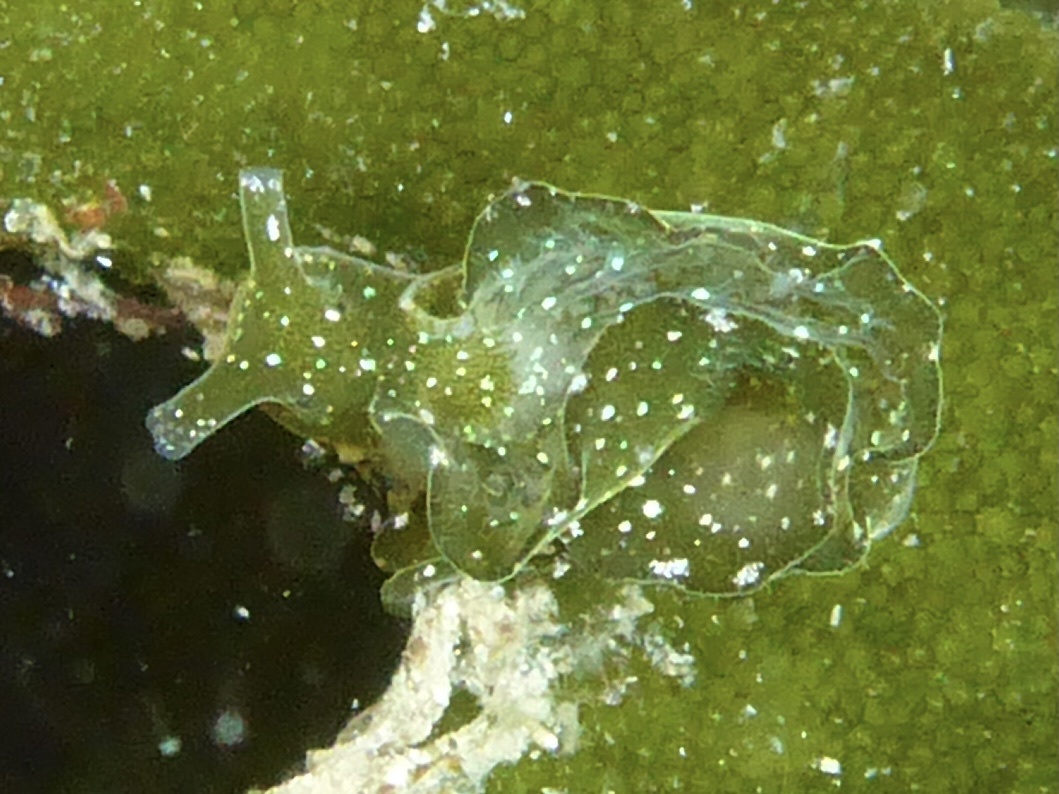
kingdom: Animalia
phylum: Mollusca
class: Gastropoda
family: Plakobranchidae
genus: Elysia
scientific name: Elysia hedgpethi
